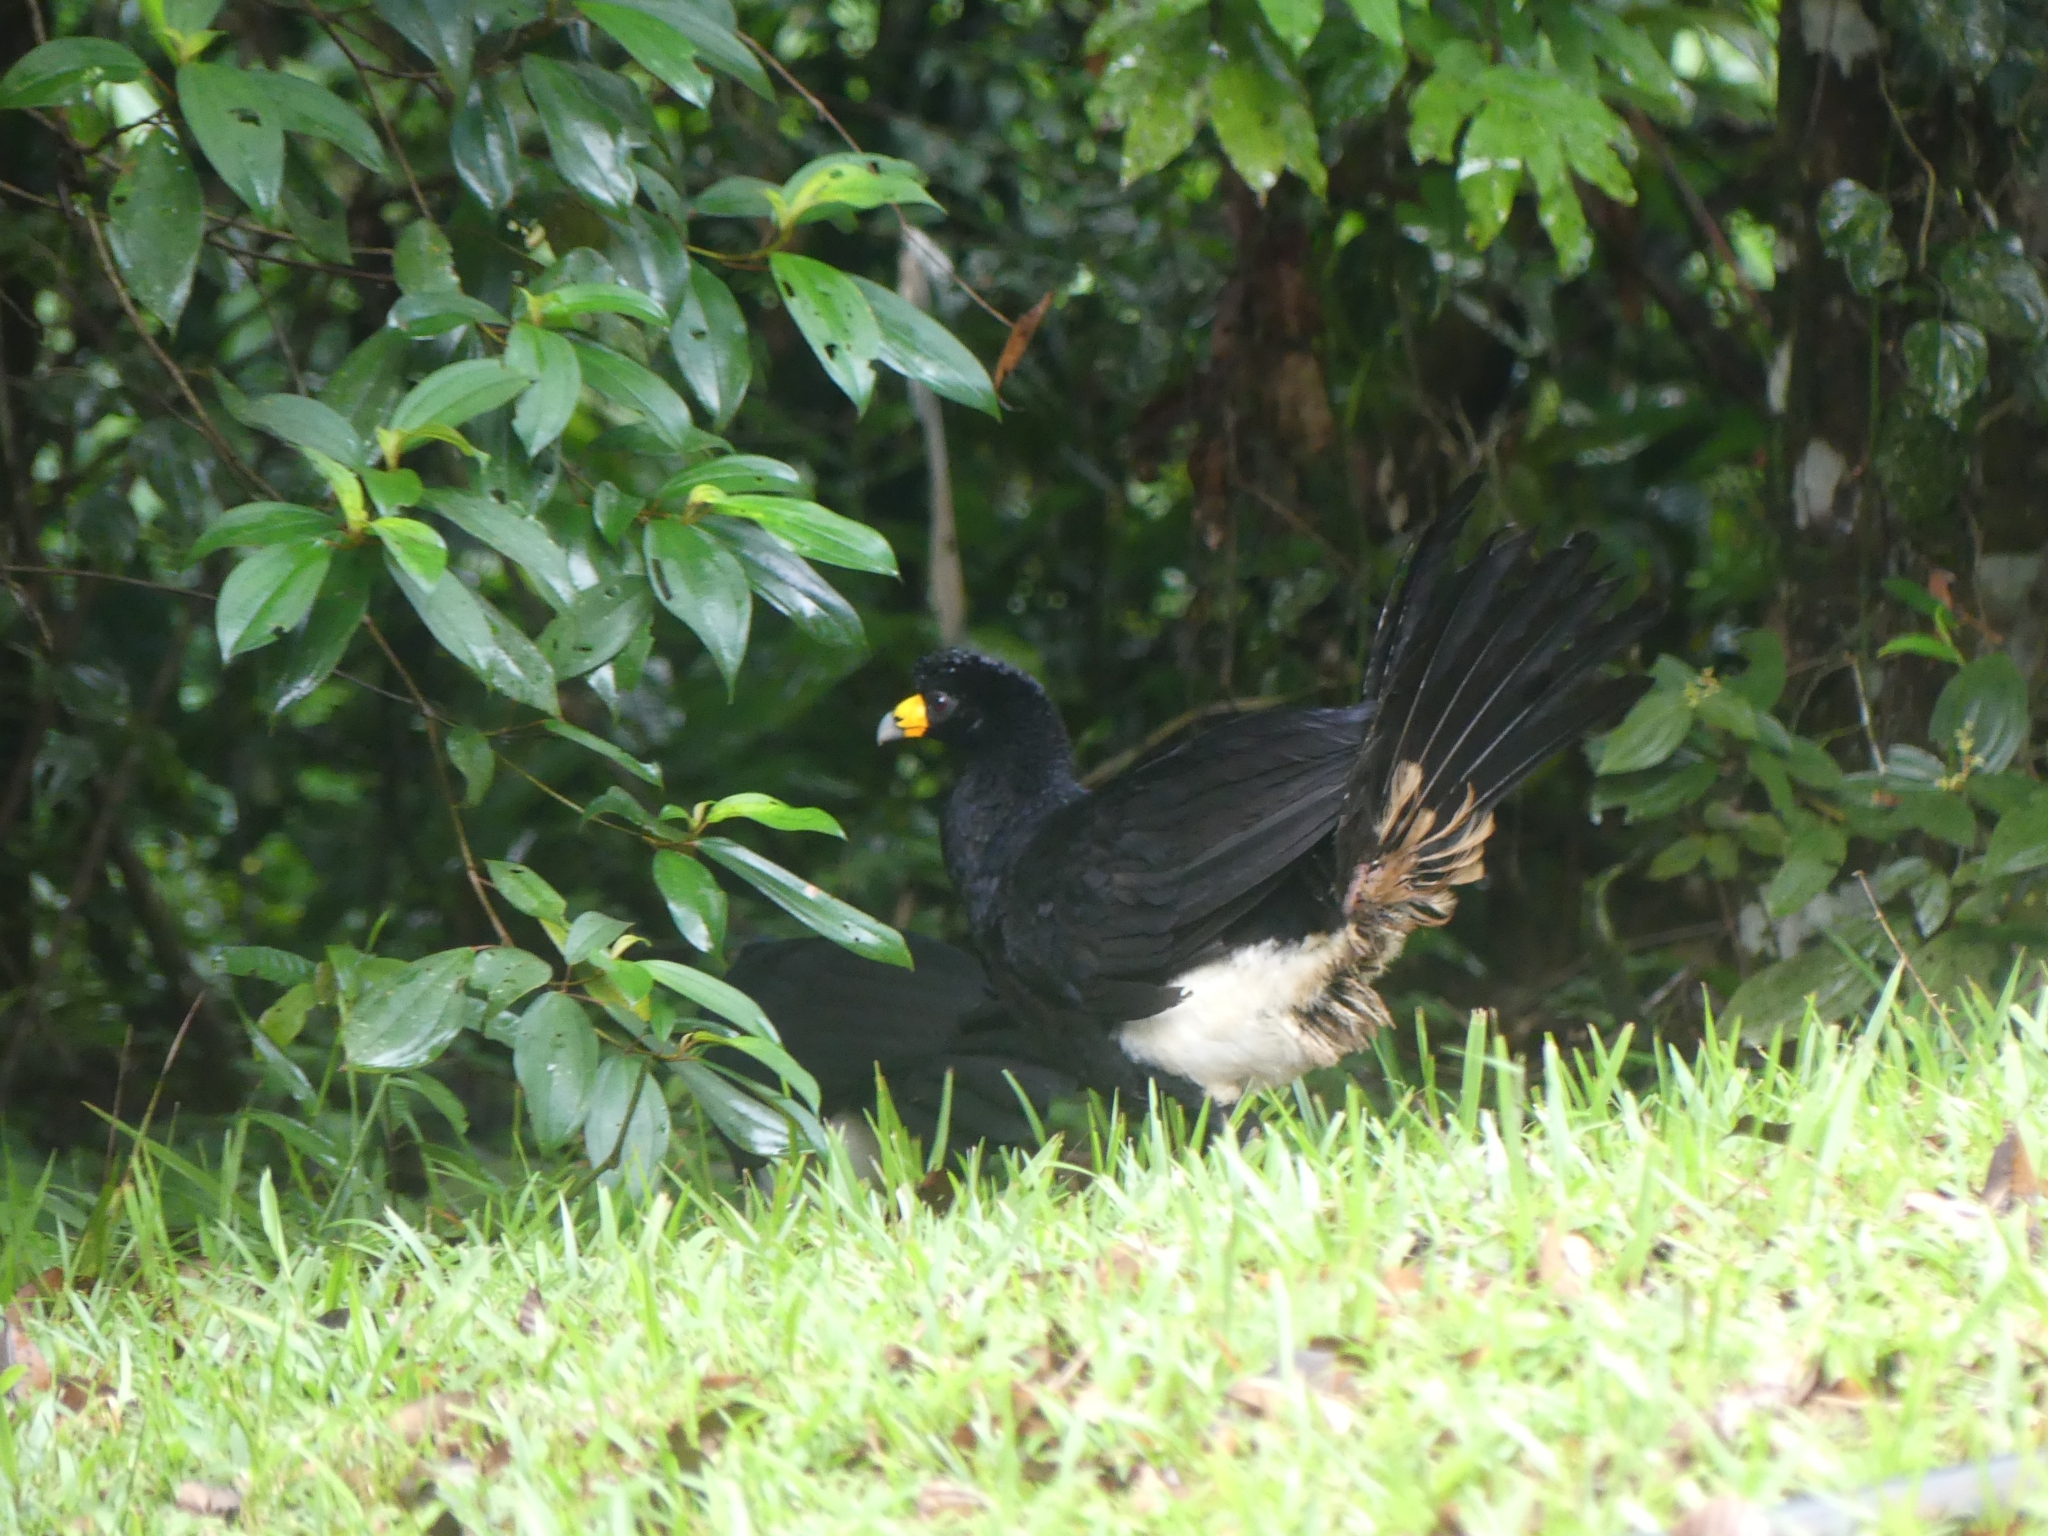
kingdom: Animalia
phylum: Chordata
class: Aves
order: Galliformes
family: Cracidae
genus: Crax
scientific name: Crax alector
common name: Black curassow
